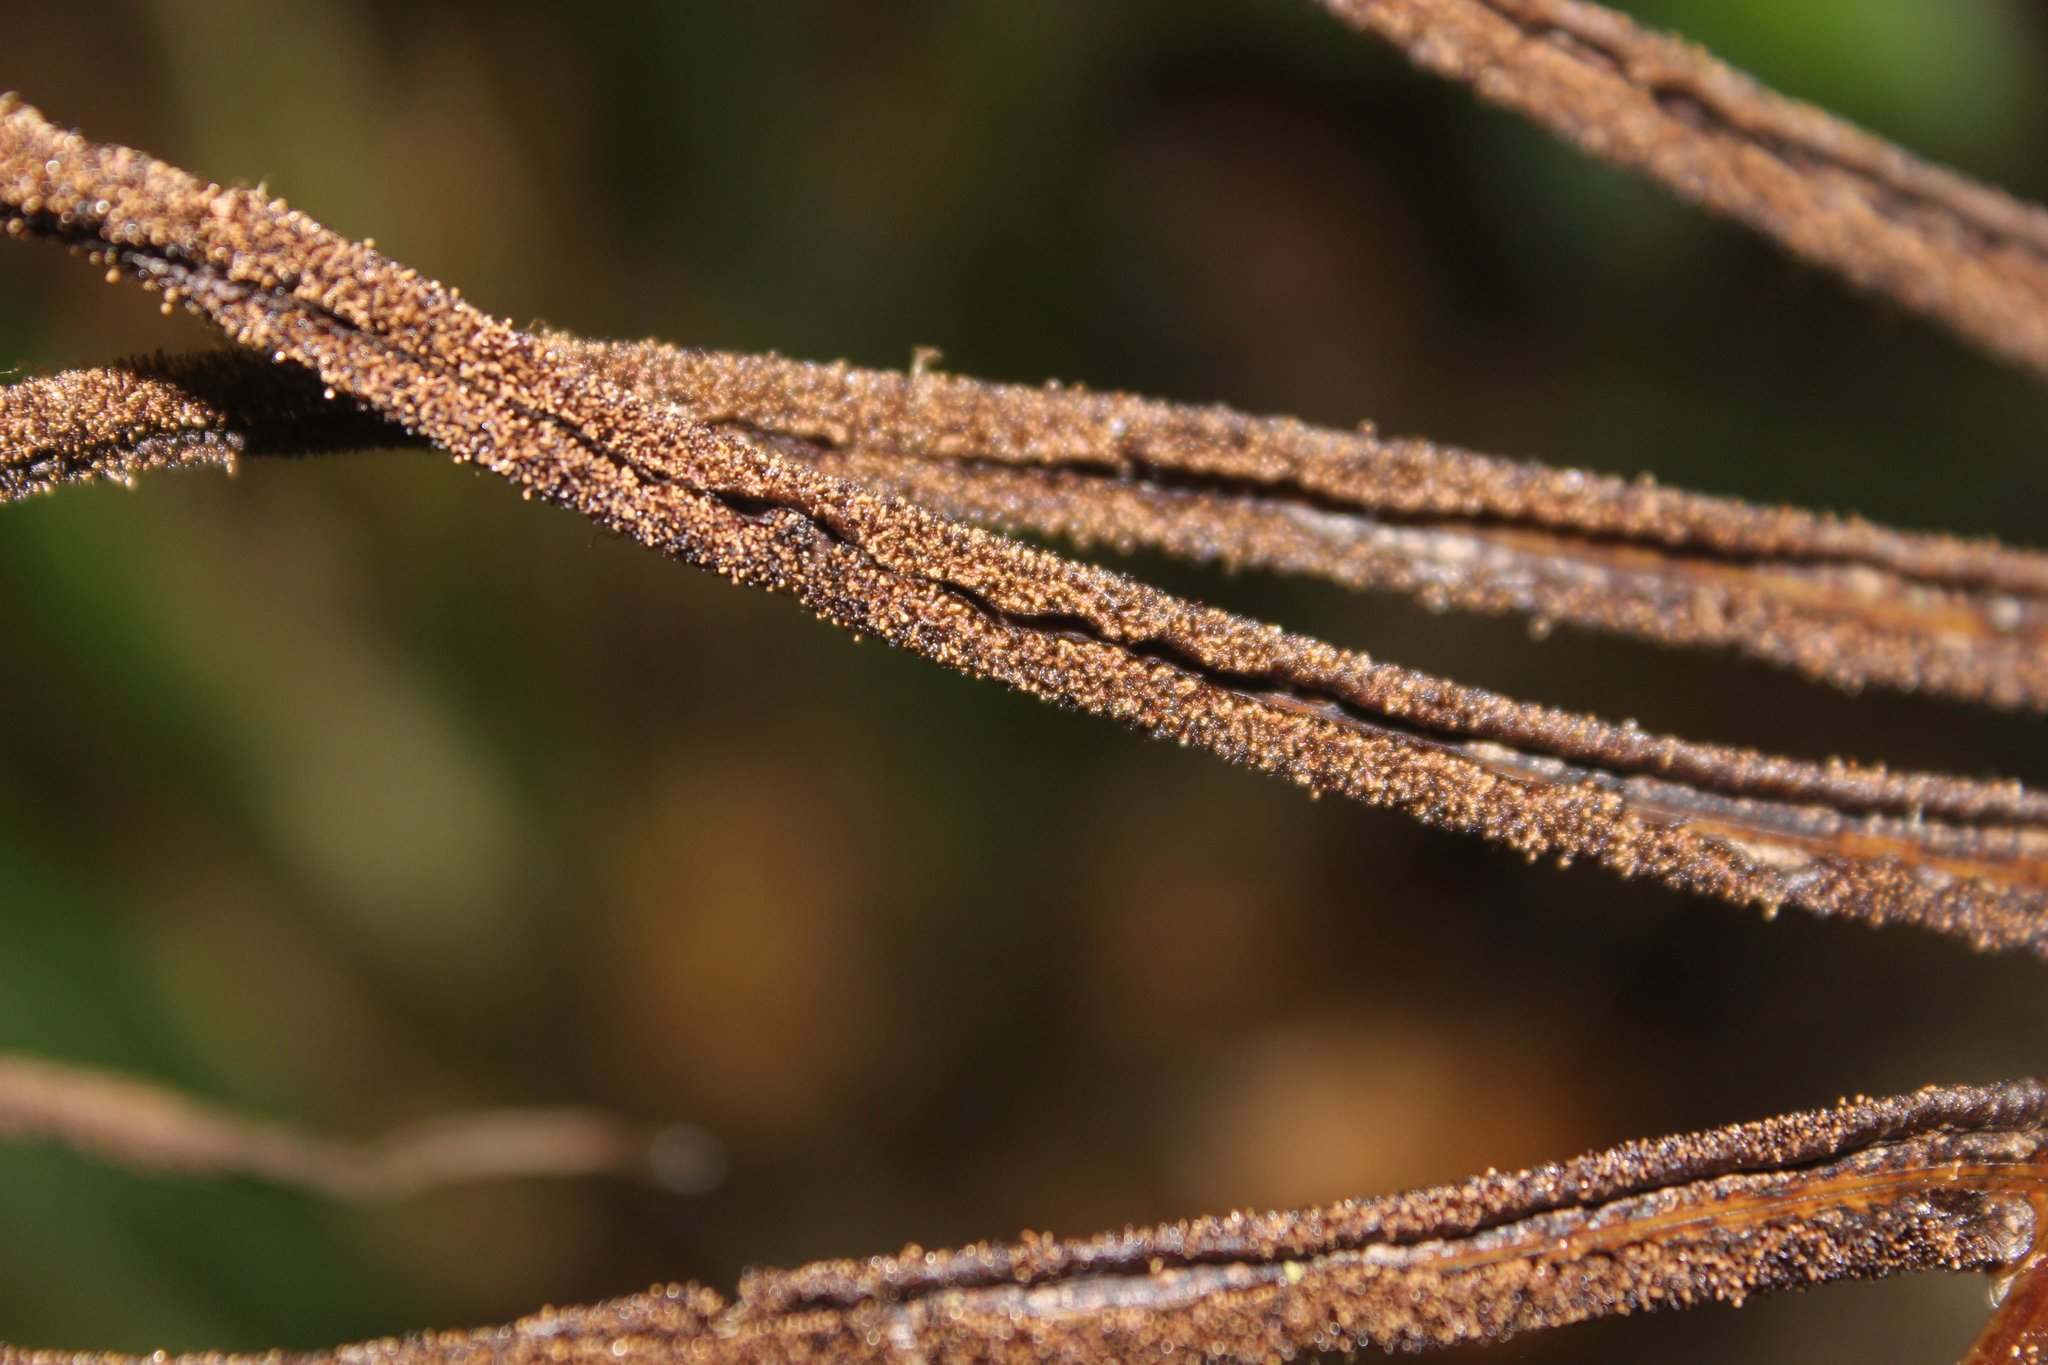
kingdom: Plantae
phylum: Tracheophyta
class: Polypodiopsida
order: Polypodiales
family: Blechnaceae
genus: Parablechnum
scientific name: Parablechnum novae-zelandiae
